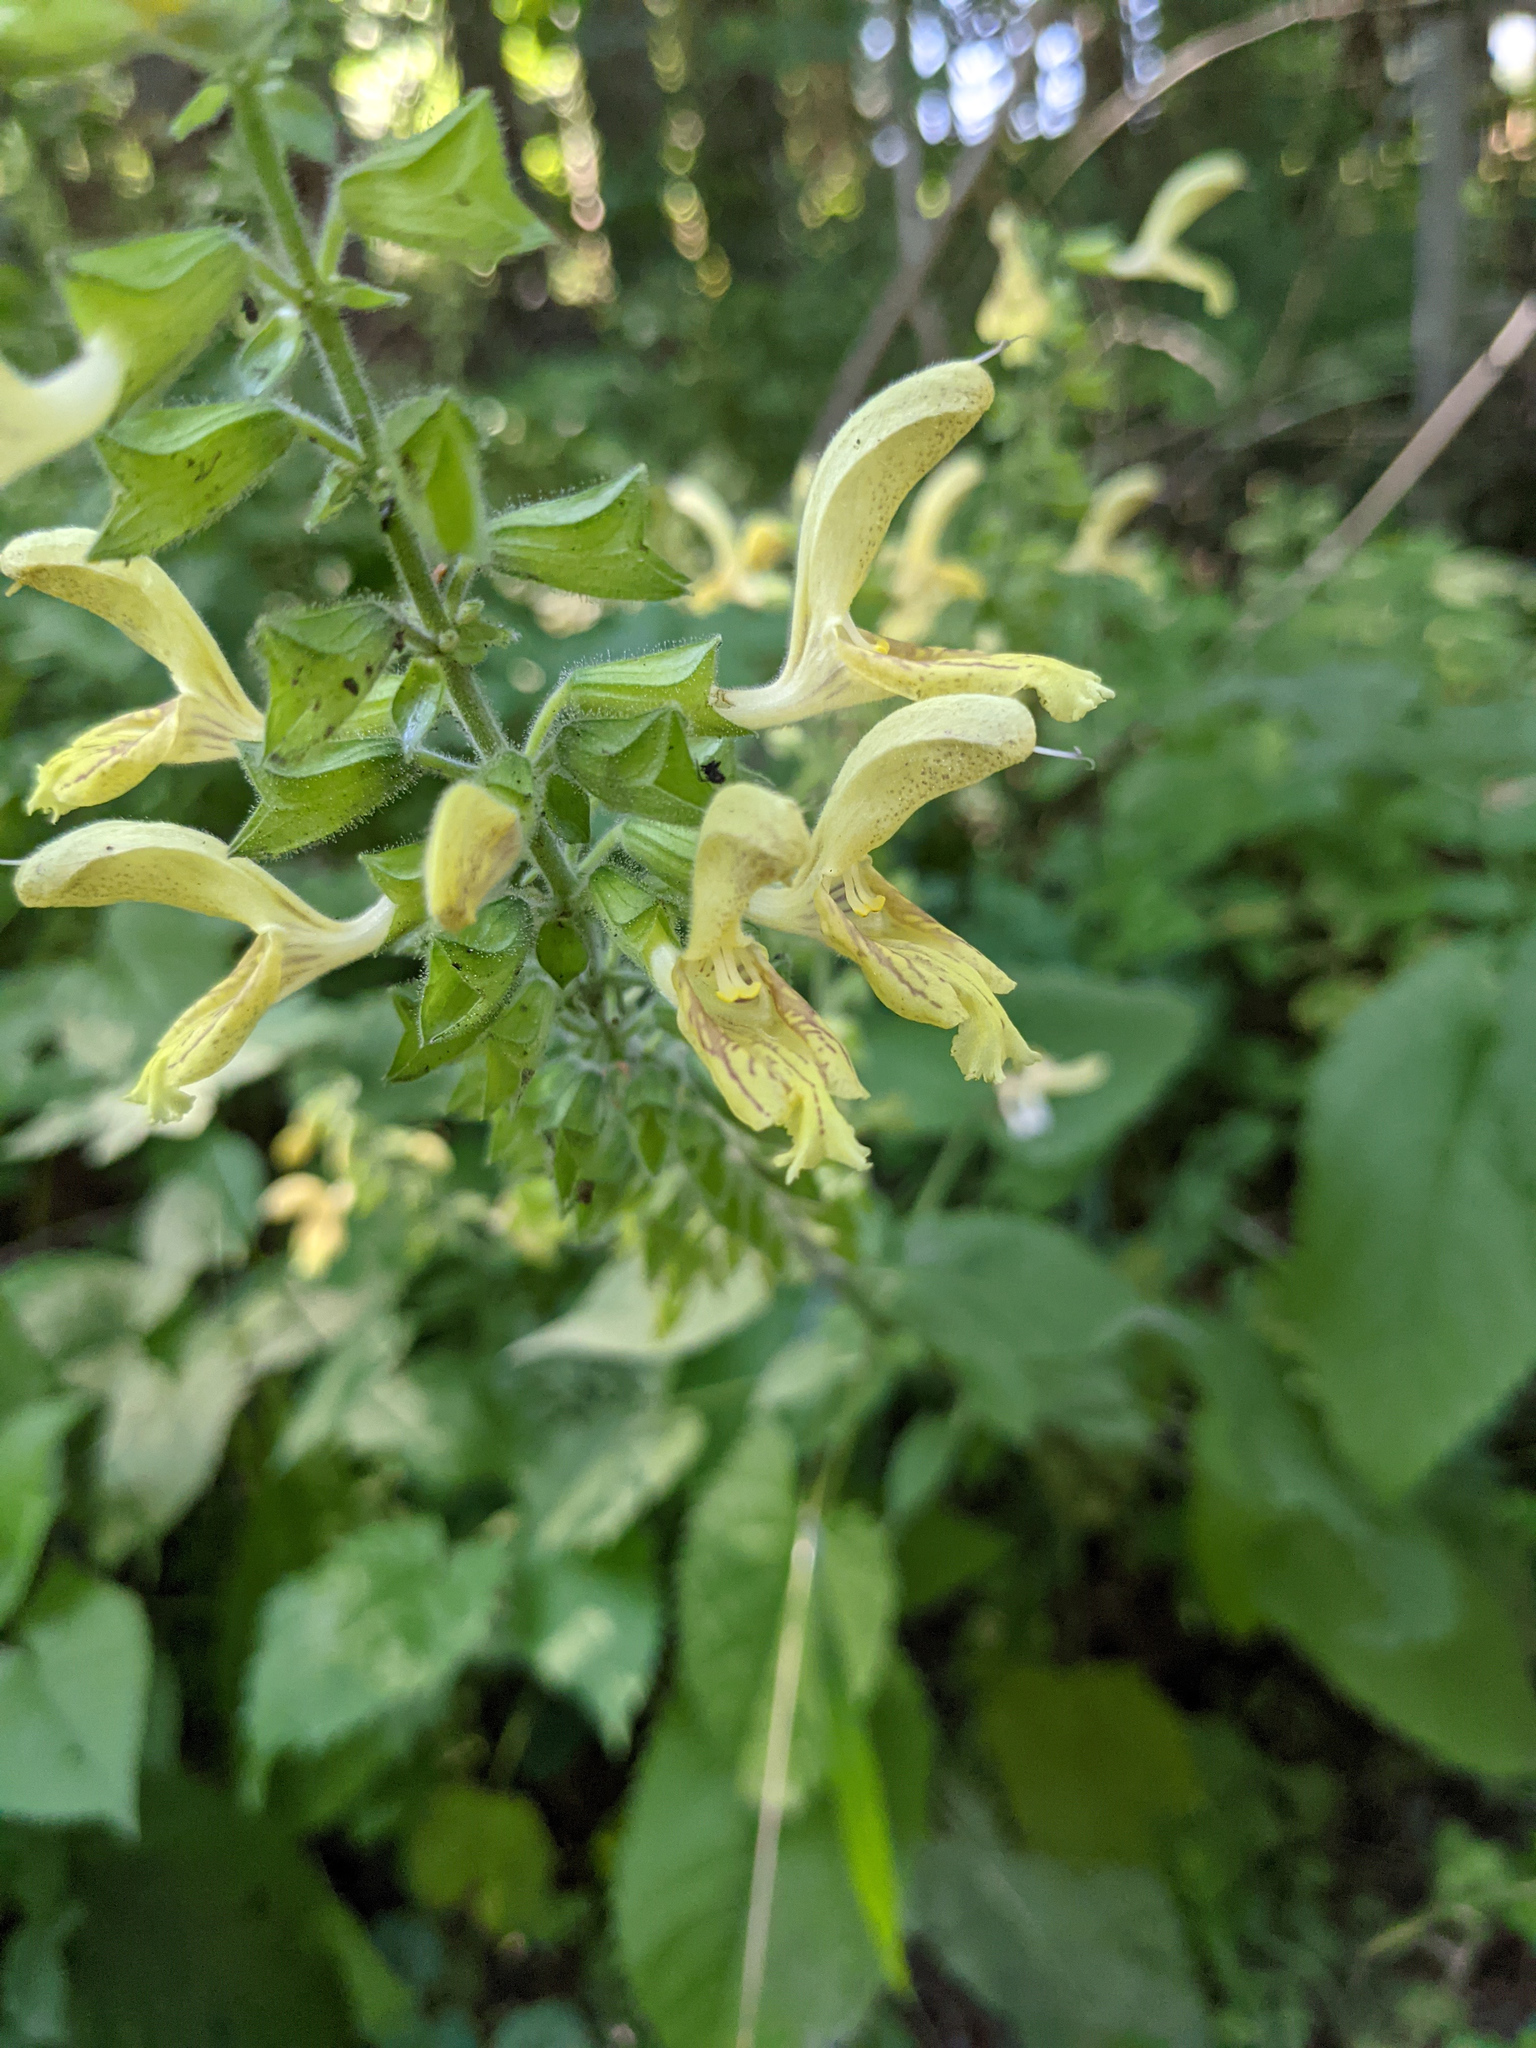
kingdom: Plantae
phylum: Tracheophyta
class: Magnoliopsida
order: Lamiales
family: Lamiaceae
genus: Salvia
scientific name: Salvia glutinosa
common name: Sticky clary
